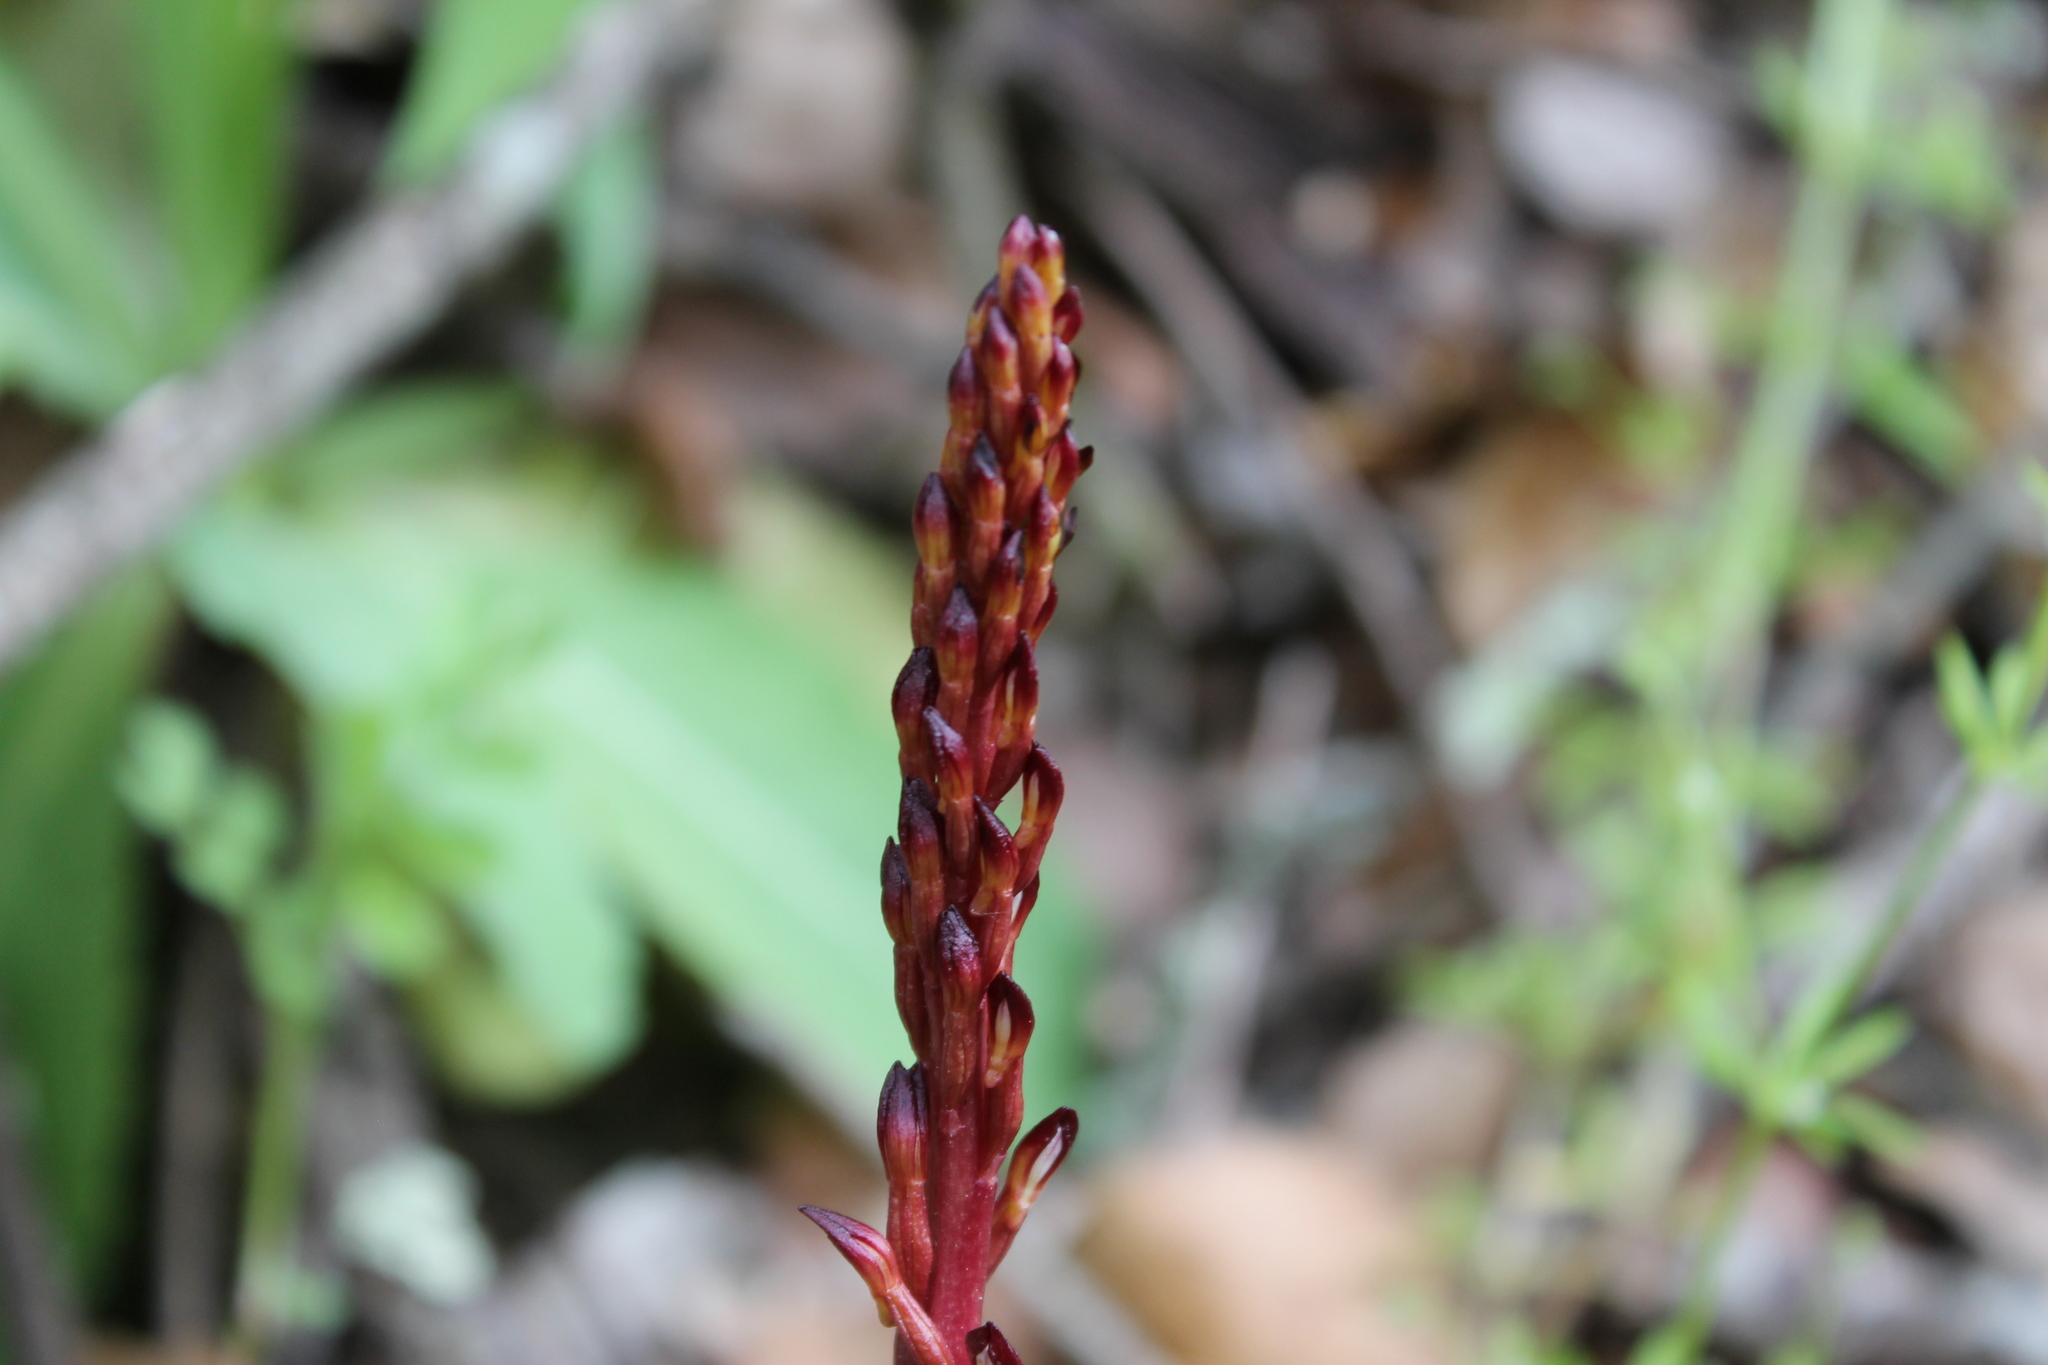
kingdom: Plantae
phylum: Tracheophyta
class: Liliopsida
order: Asparagales
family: Orchidaceae
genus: Corallorhiza
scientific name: Corallorhiza maculata
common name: Spotted coralroot
